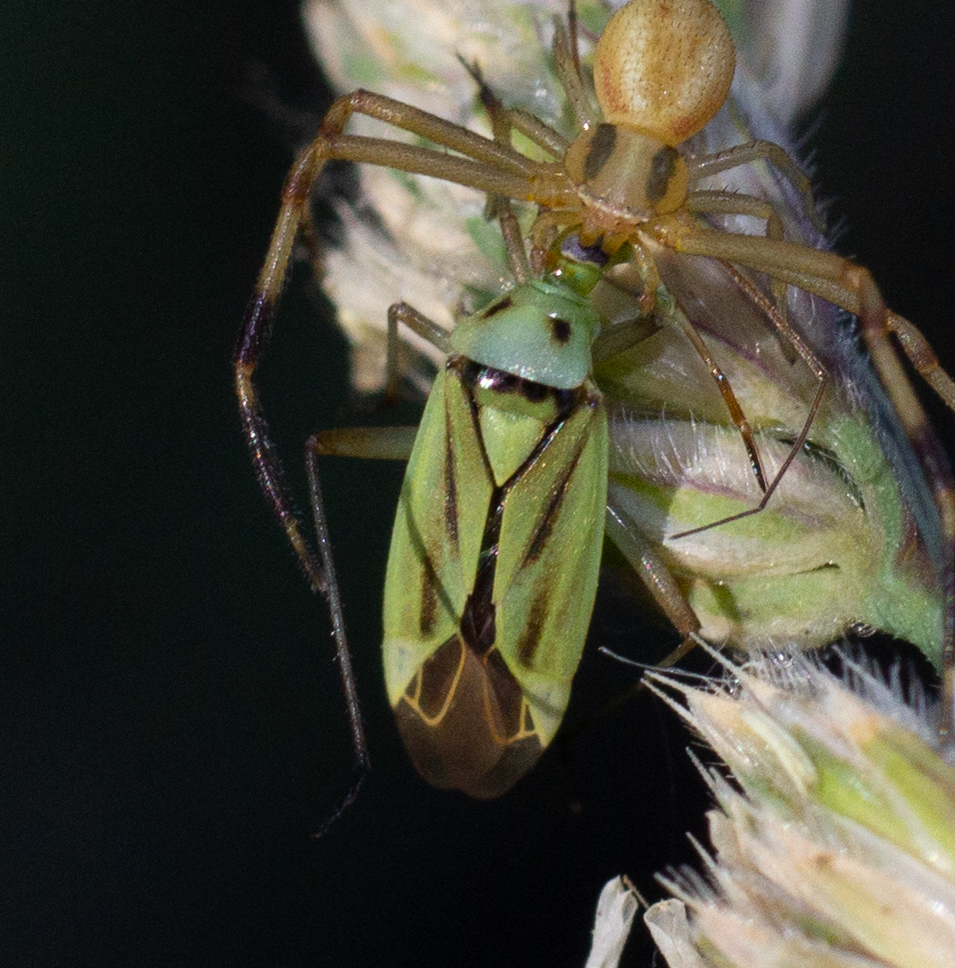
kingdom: Animalia
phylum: Arthropoda
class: Insecta
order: Hemiptera
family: Miridae
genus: Stenotus
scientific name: Stenotus binotatus
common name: Plant bug
